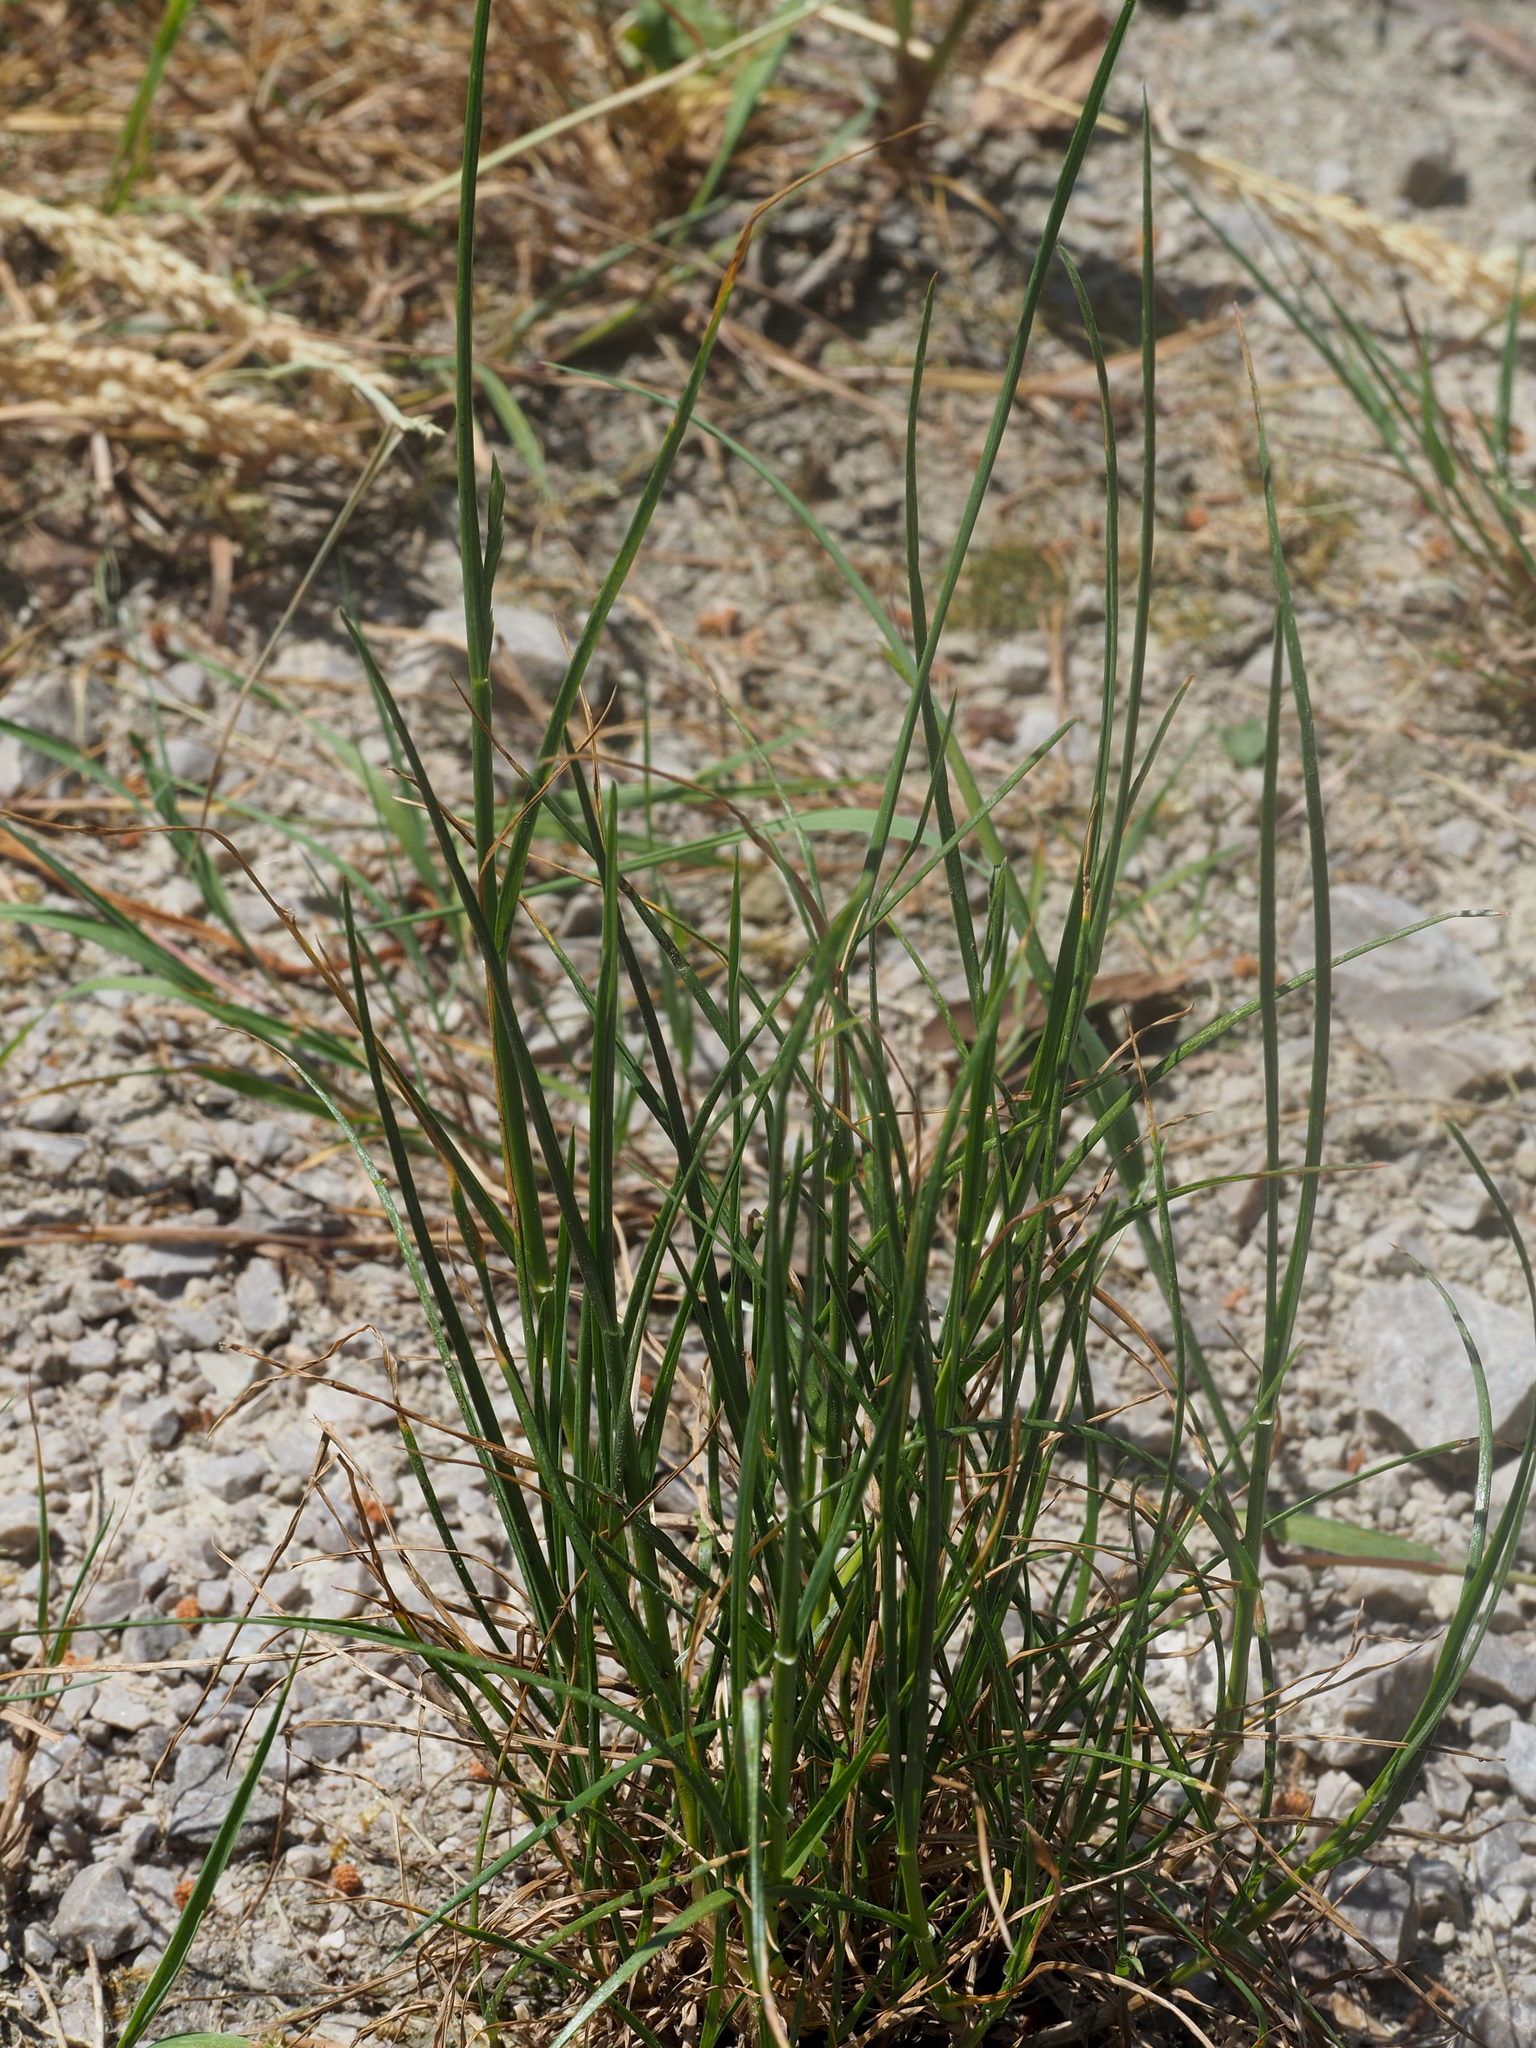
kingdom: Plantae
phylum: Tracheophyta
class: Liliopsida
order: Poales
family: Poaceae
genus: Lolium
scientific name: Lolium perenne
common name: Perennial ryegrass
